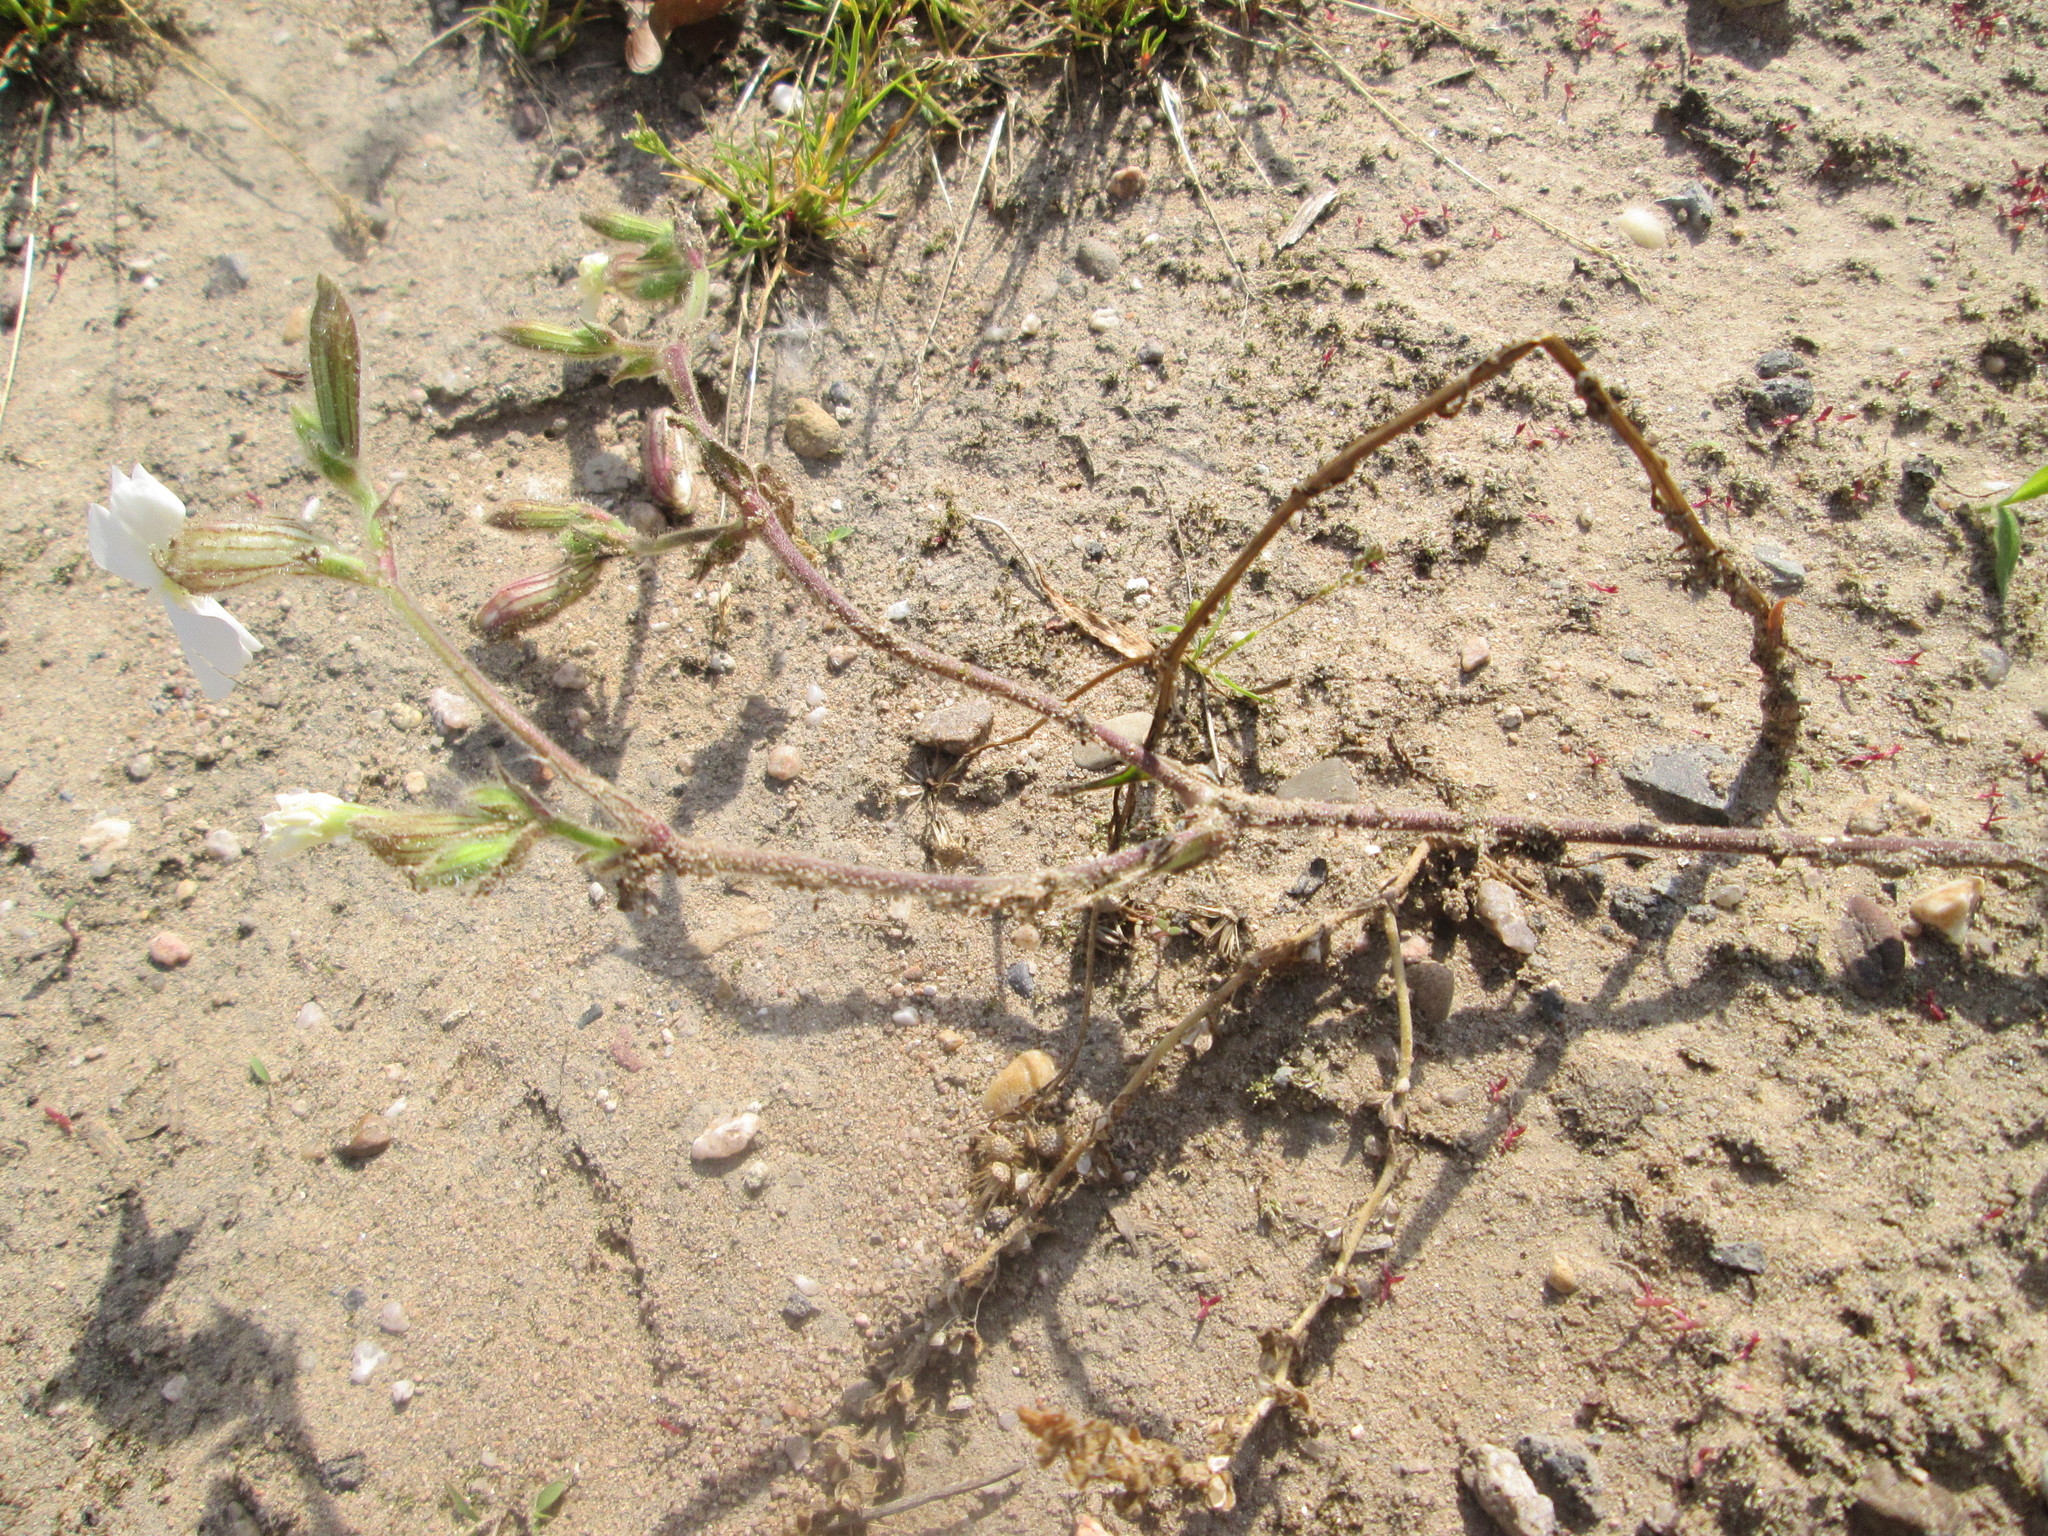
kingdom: Plantae
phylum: Tracheophyta
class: Magnoliopsida
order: Caryophyllales
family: Caryophyllaceae
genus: Silene
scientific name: Silene latifolia
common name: White campion
